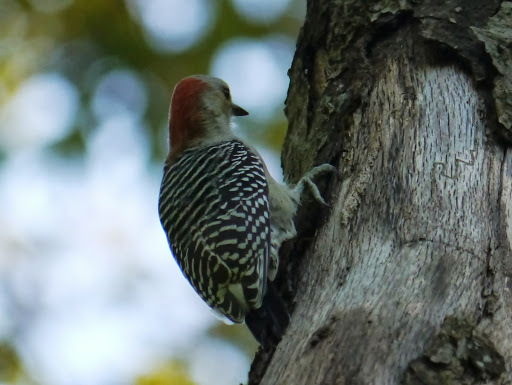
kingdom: Animalia
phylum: Chordata
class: Aves
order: Piciformes
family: Picidae
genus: Melanerpes
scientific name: Melanerpes carolinus
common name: Red-bellied woodpecker
